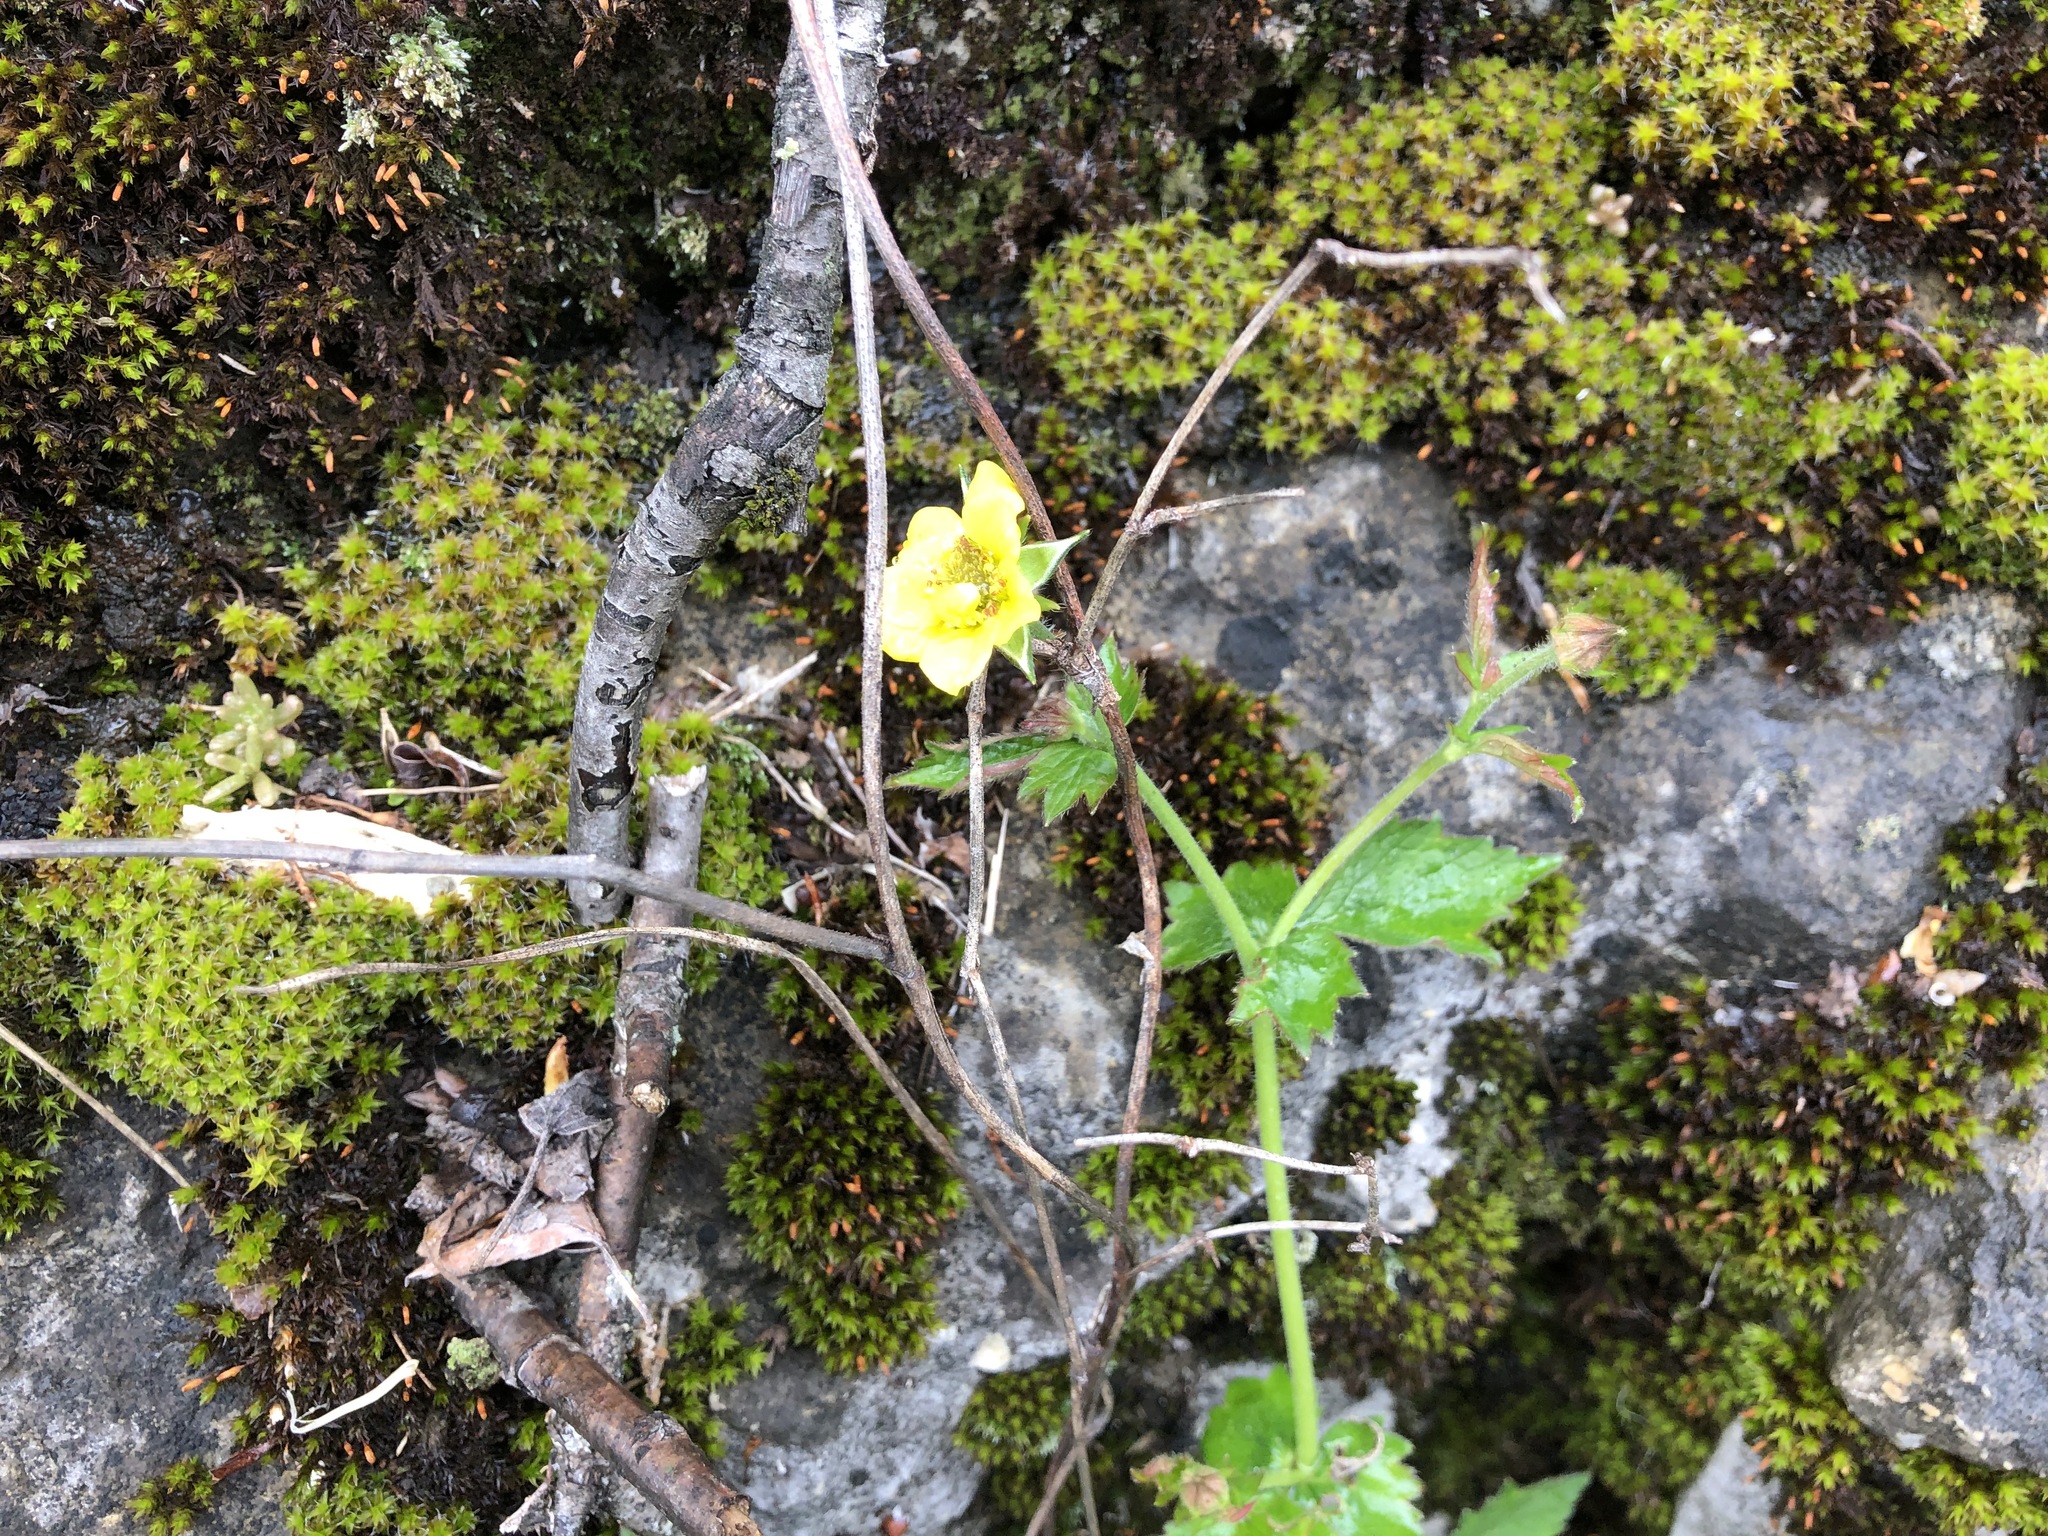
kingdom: Plantae
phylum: Tracheophyta
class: Magnoliopsida
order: Rosales
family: Rosaceae
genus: Geum
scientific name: Geum urbanum
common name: Wood avens
